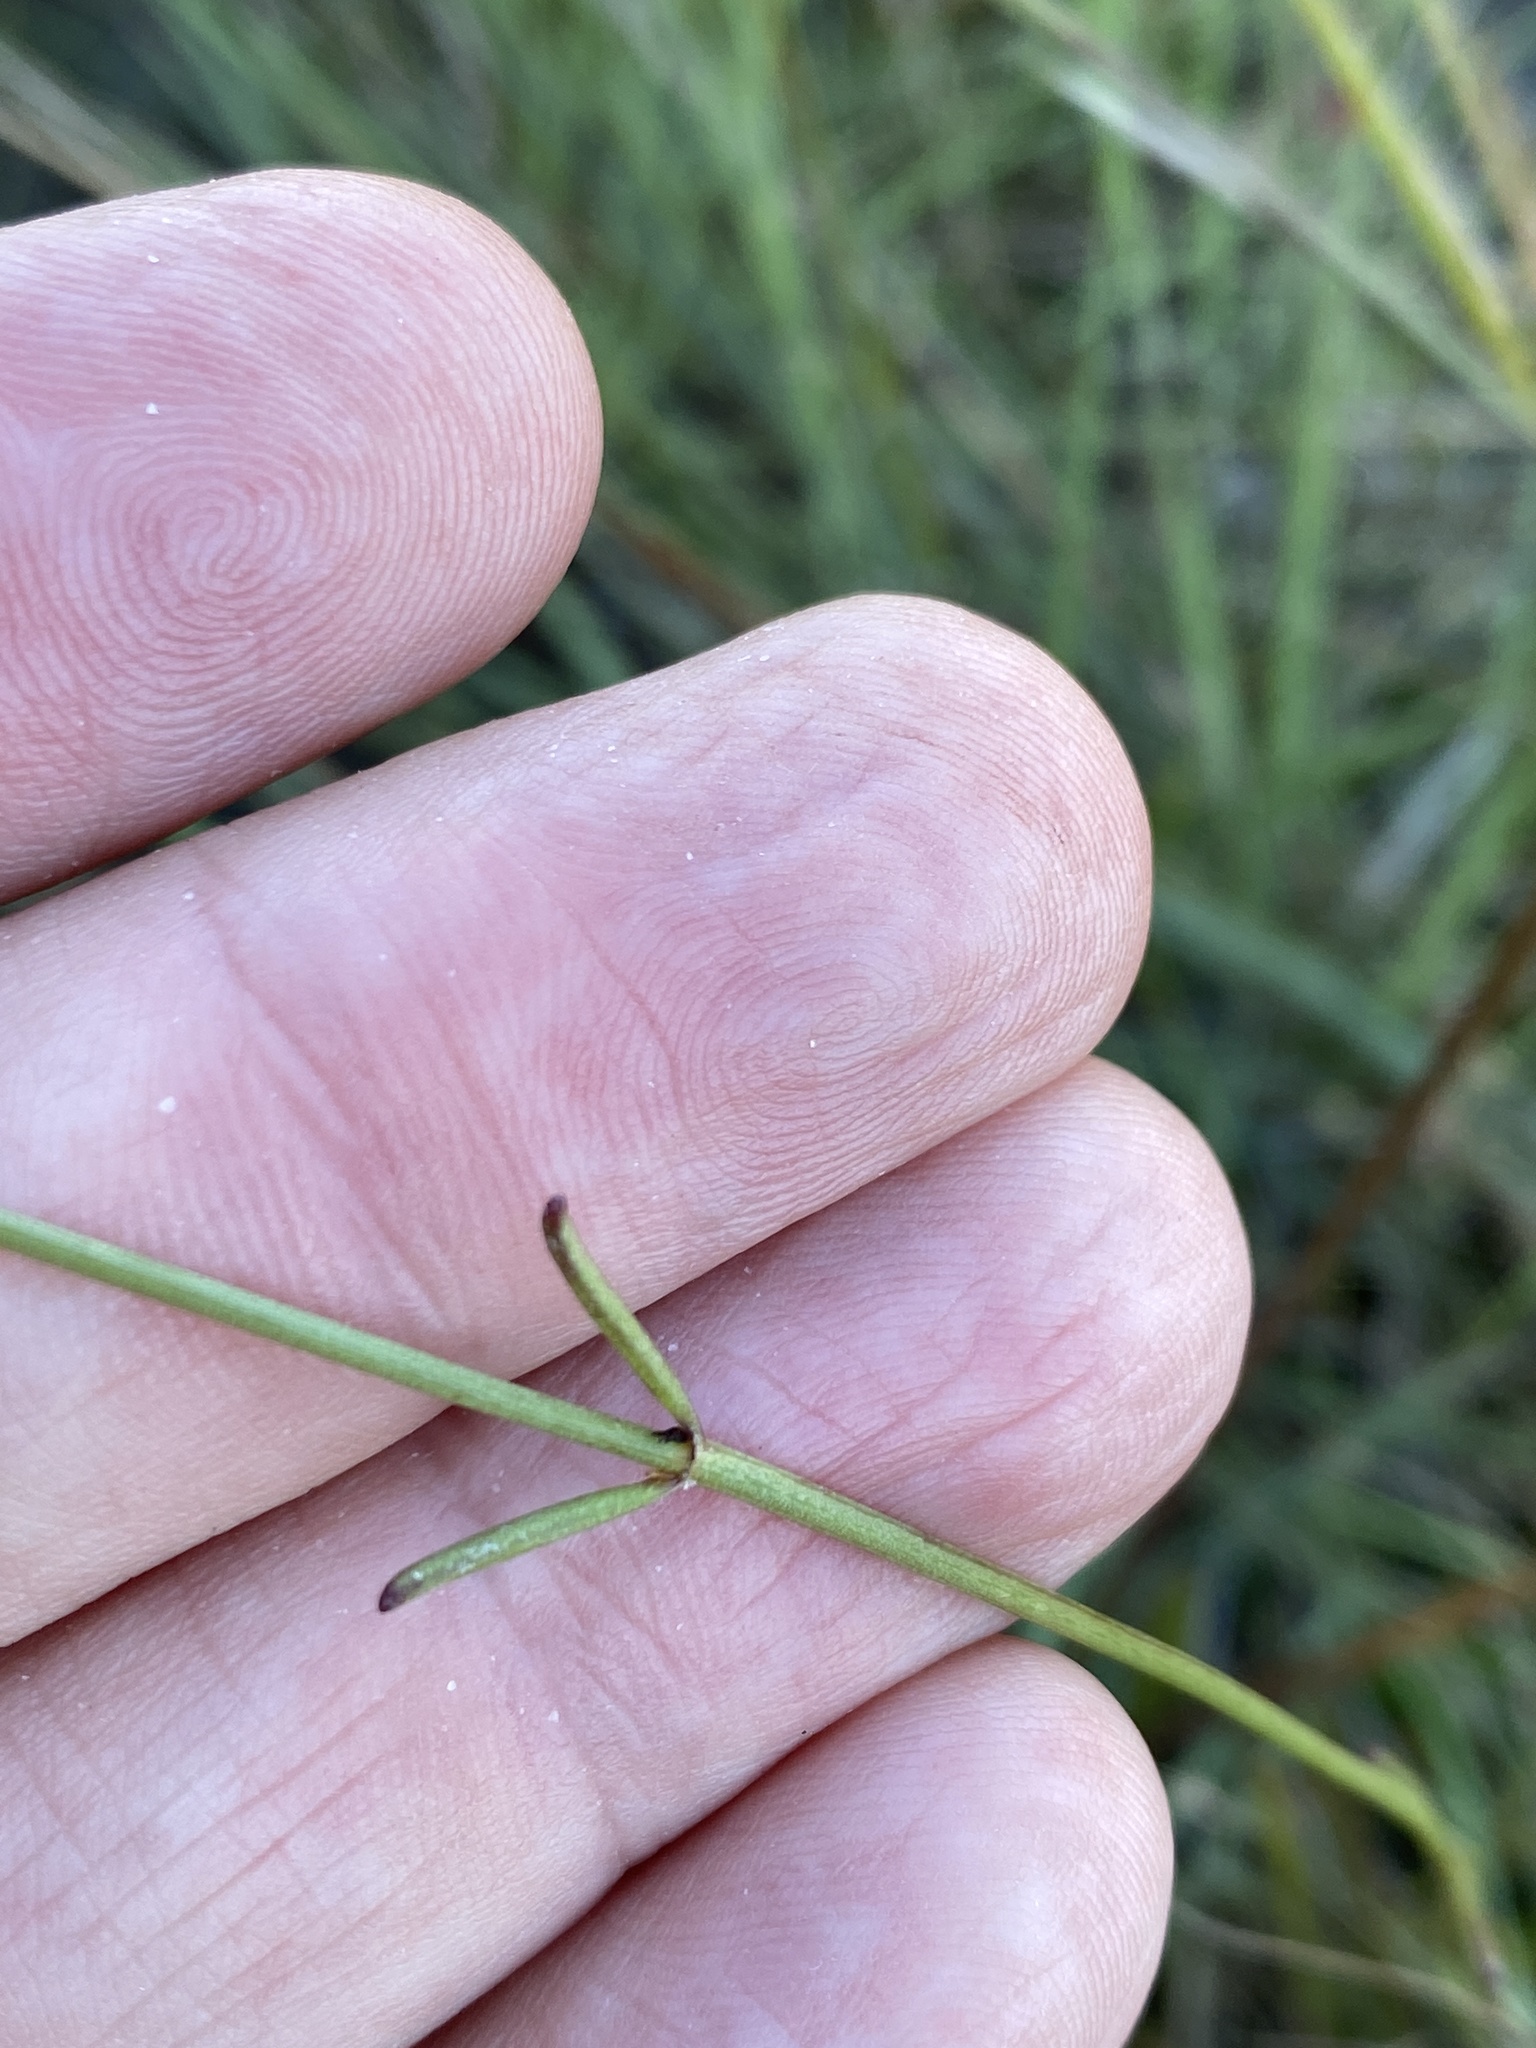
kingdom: Plantae
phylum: Tracheophyta
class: Magnoliopsida
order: Asterales
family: Asteraceae
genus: Coreopsis
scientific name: Coreopsis gladiata
